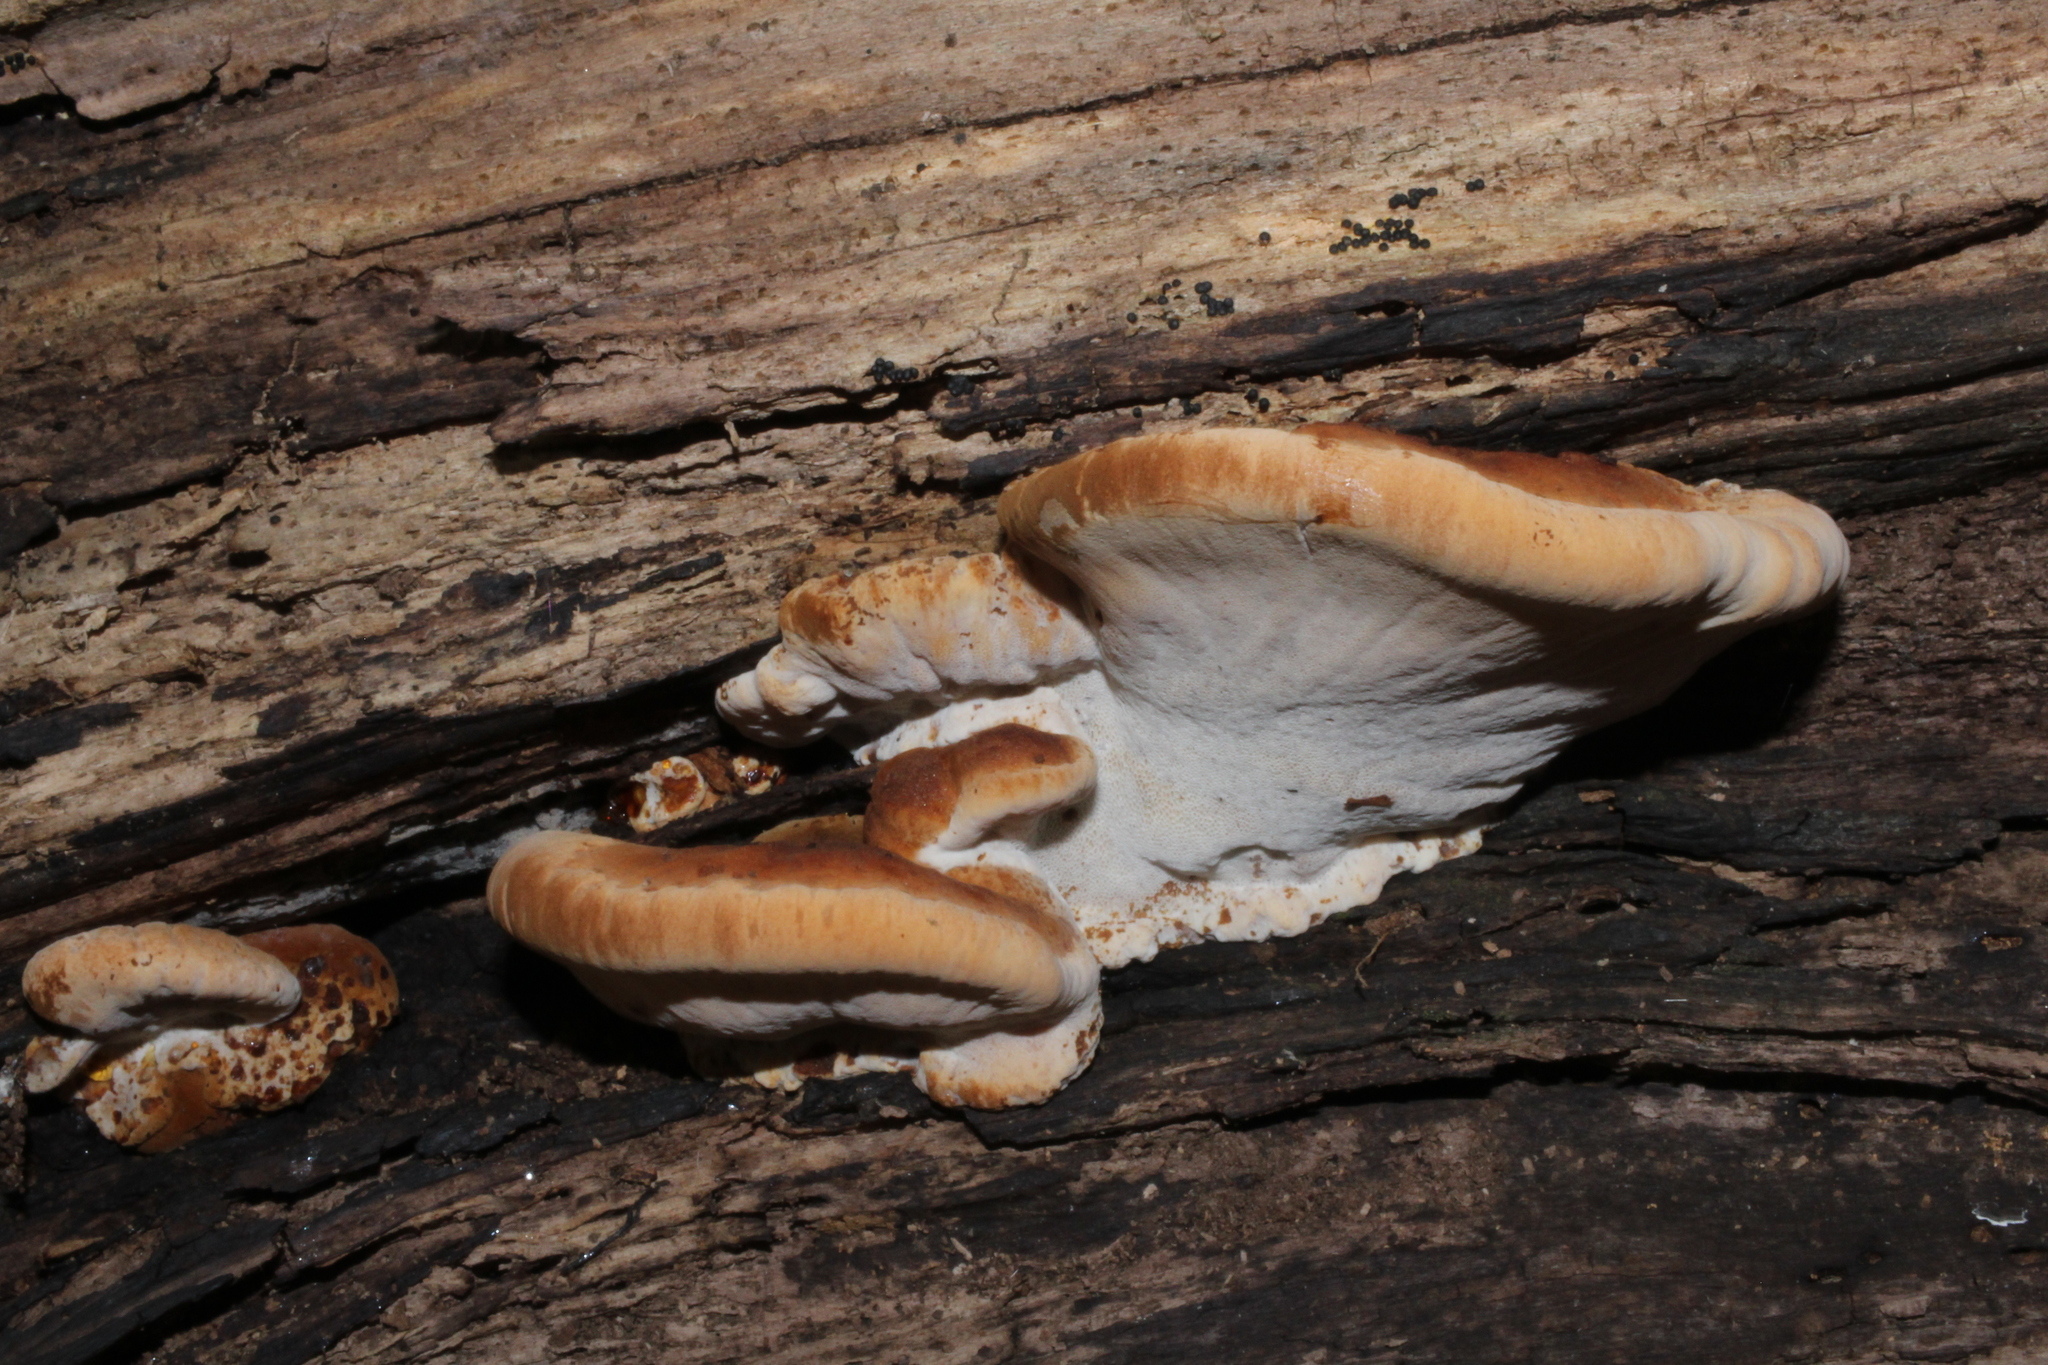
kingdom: Fungi
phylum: Basidiomycota
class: Agaricomycetes
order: Polyporales
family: Ischnodermataceae
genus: Ischnoderma
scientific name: Ischnoderma resinosum
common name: Resinous polypore
